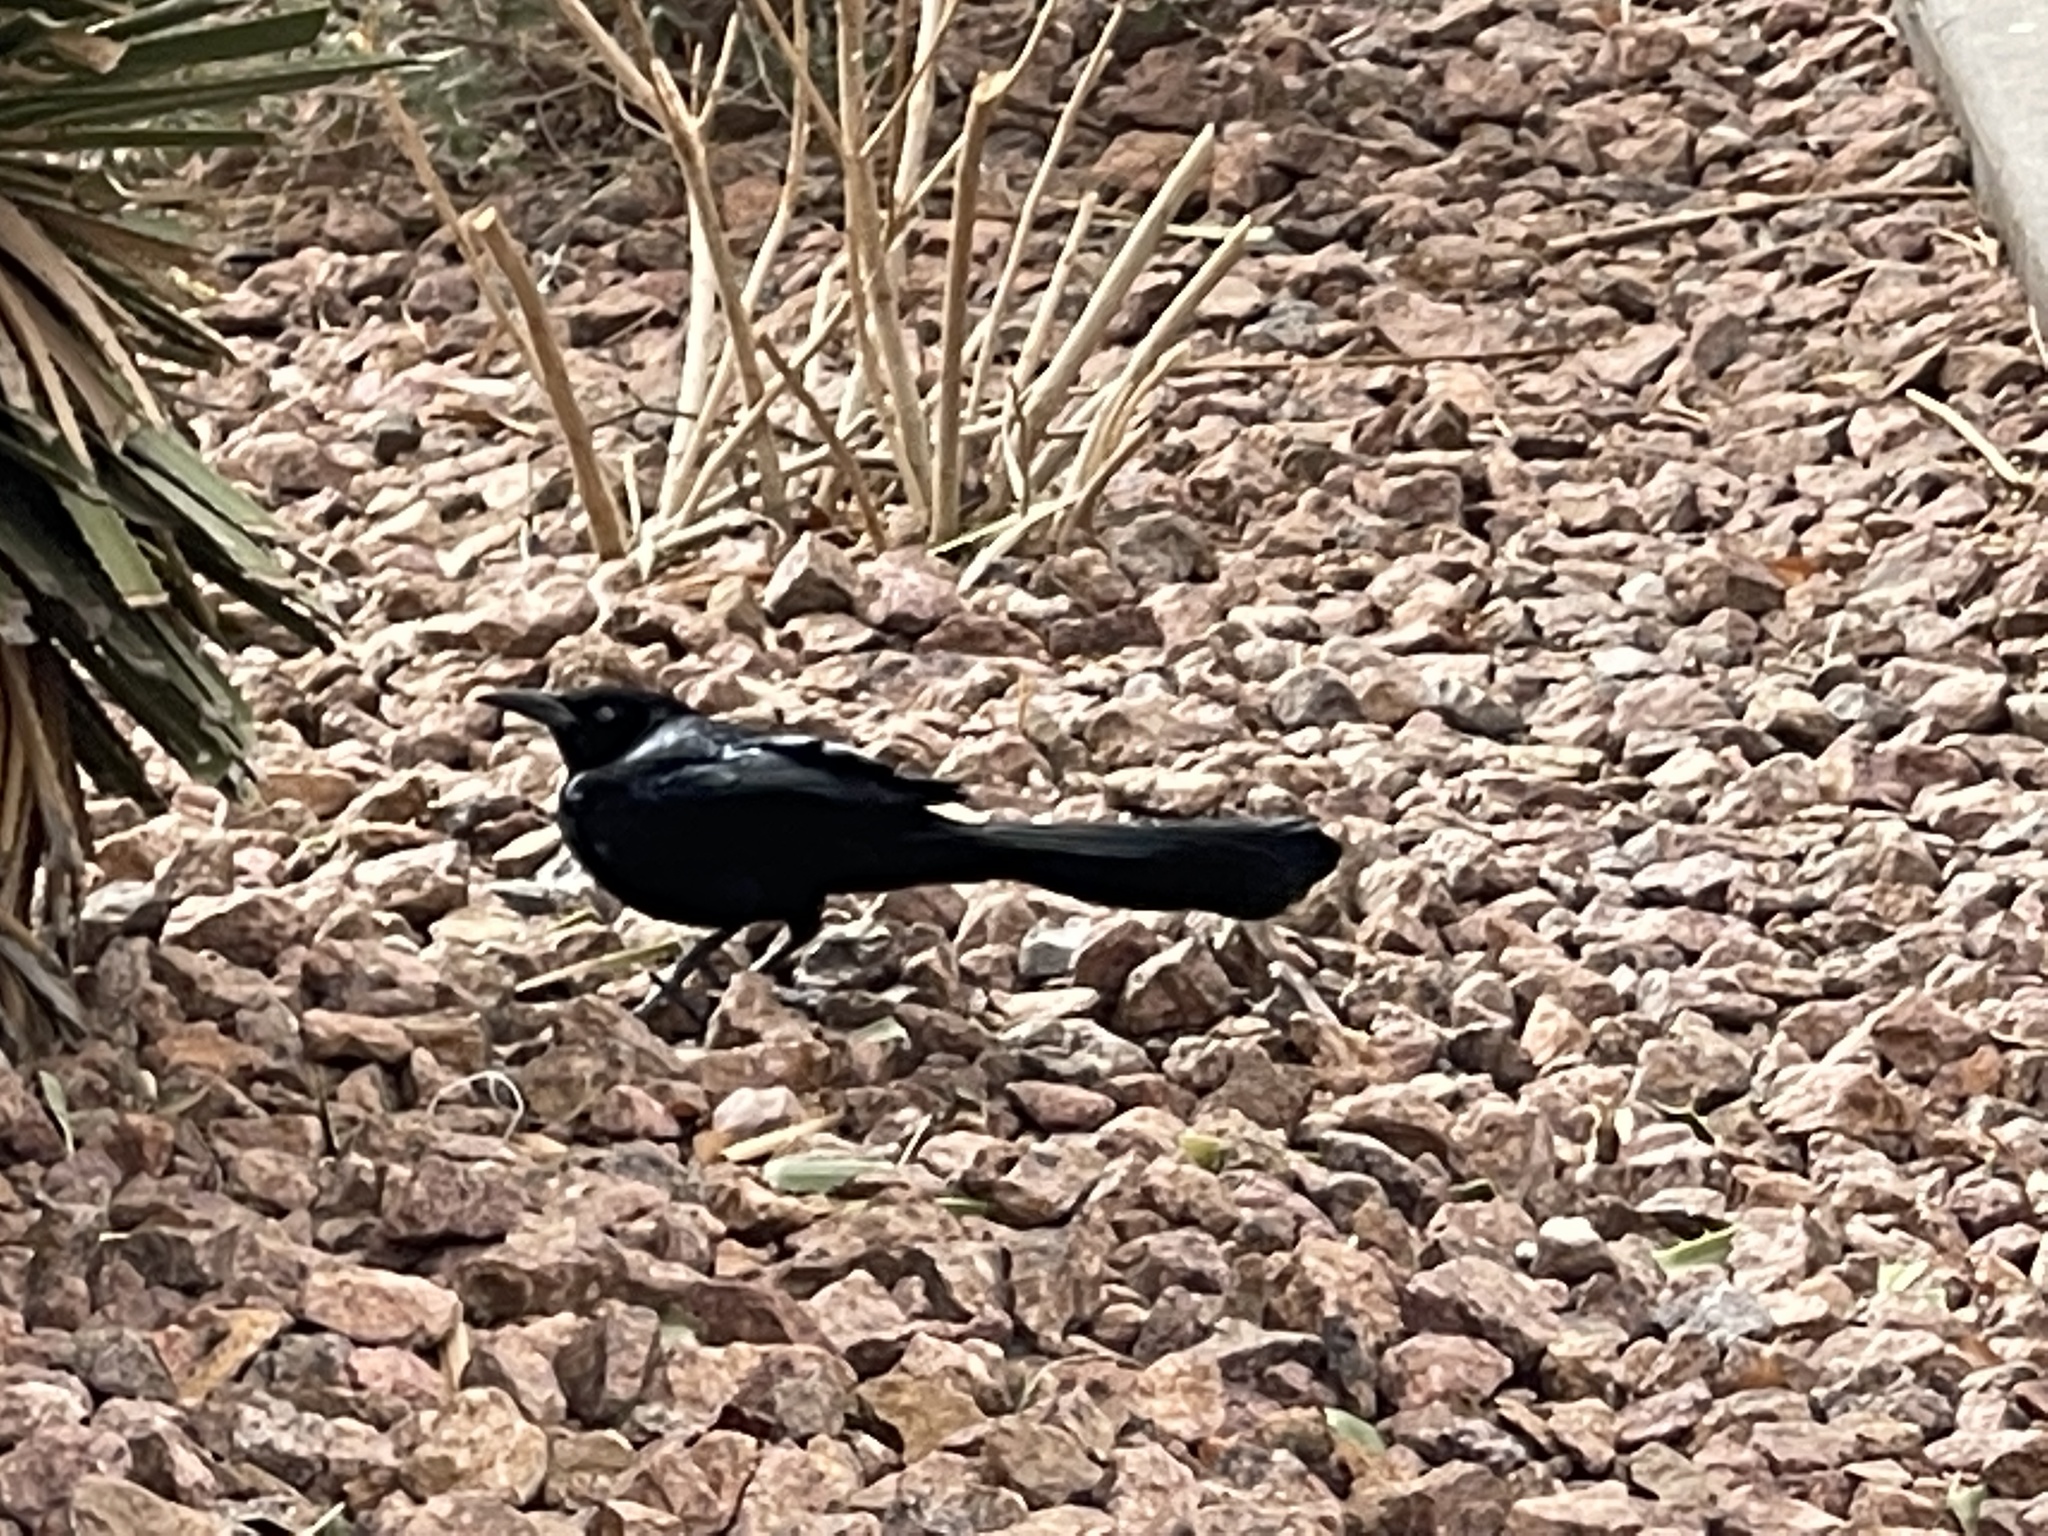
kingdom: Animalia
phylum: Chordata
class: Aves
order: Passeriformes
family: Icteridae
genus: Quiscalus
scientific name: Quiscalus mexicanus
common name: Great-tailed grackle
